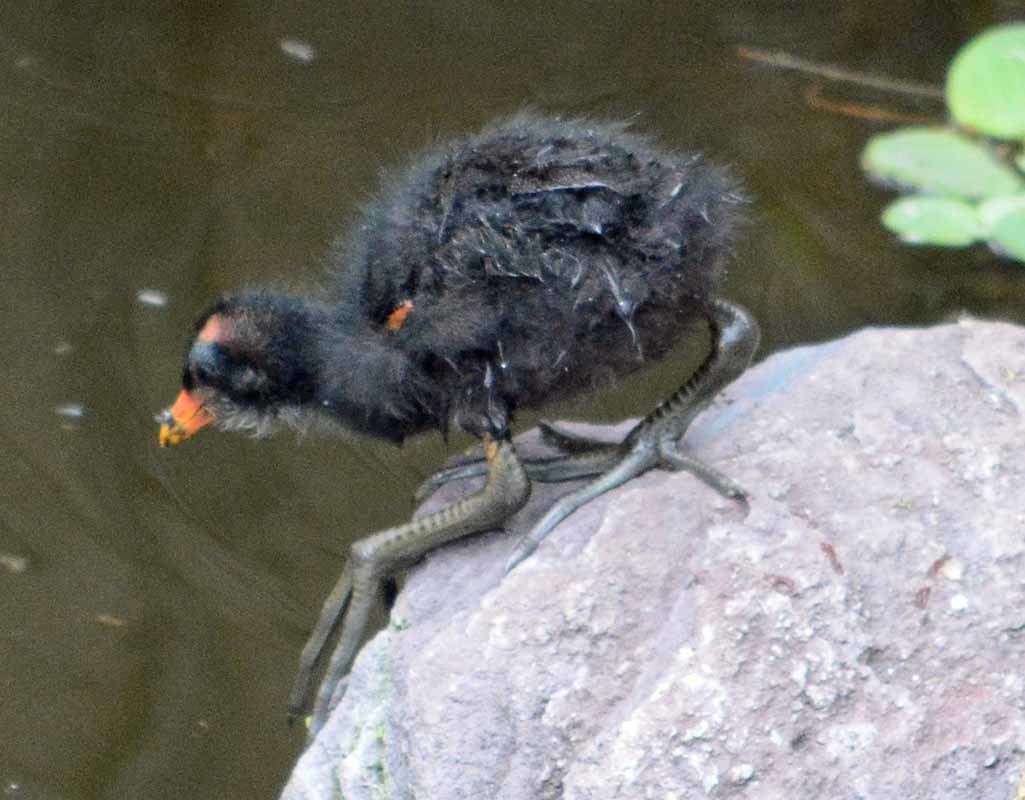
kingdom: Animalia
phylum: Chordata
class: Aves
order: Gruiformes
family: Rallidae
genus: Gallinula
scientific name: Gallinula chloropus
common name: Common moorhen
